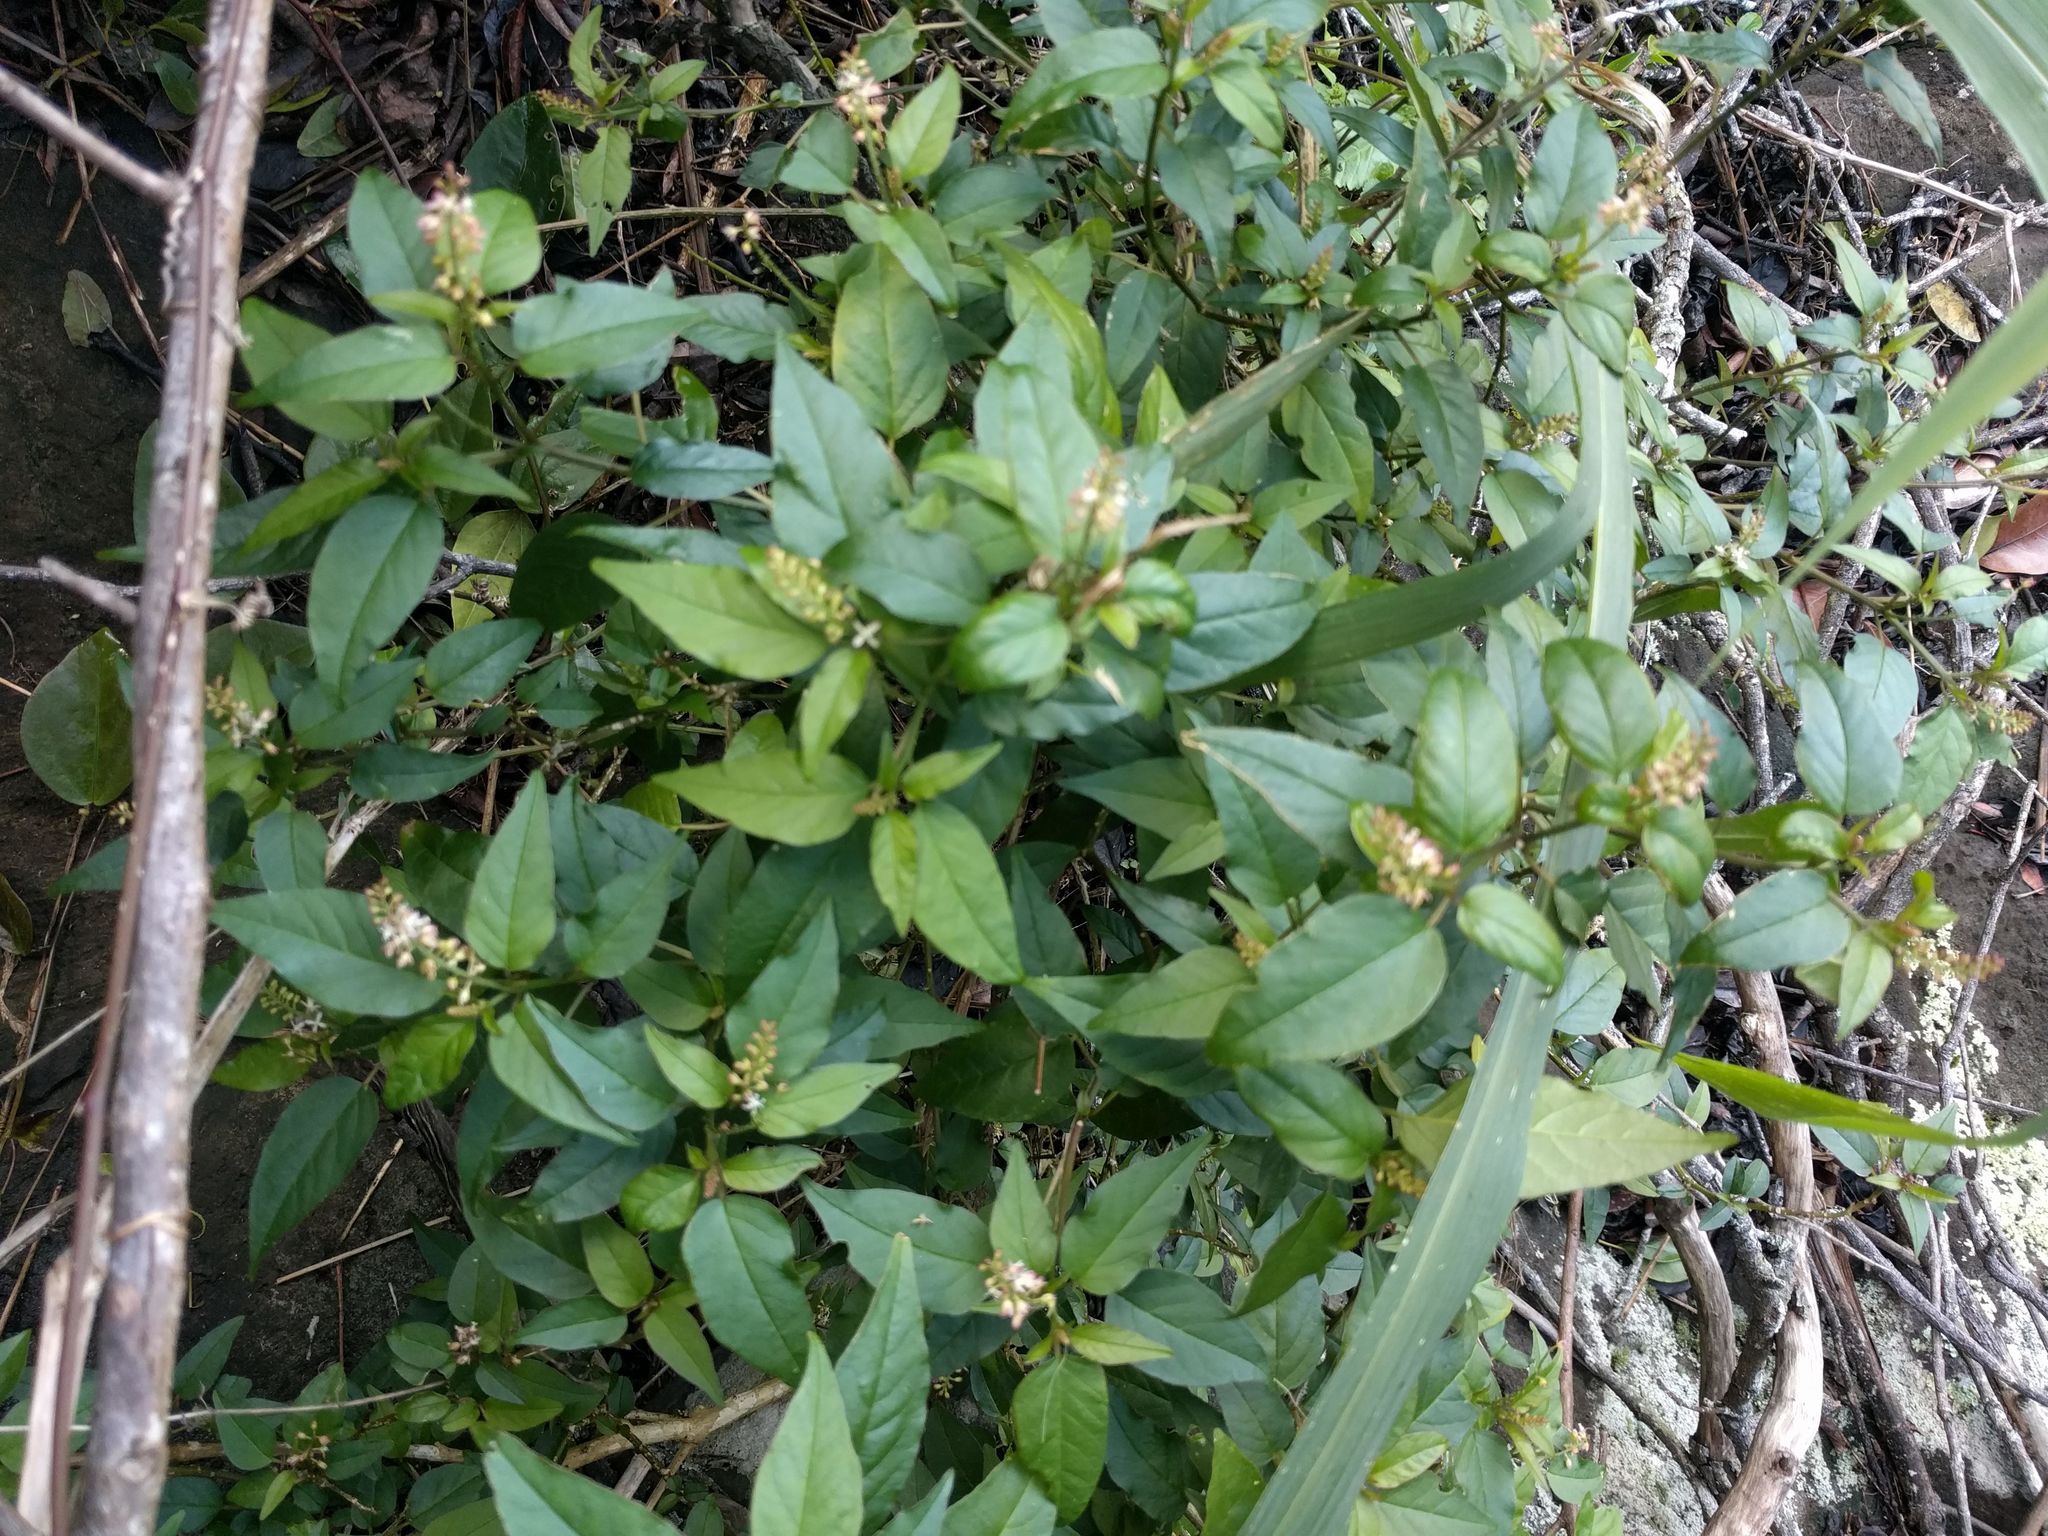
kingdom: Plantae
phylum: Tracheophyta
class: Magnoliopsida
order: Caryophyllales
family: Phytolaccaceae
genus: Rivina
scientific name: Rivina humilis
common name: Rougeplant
